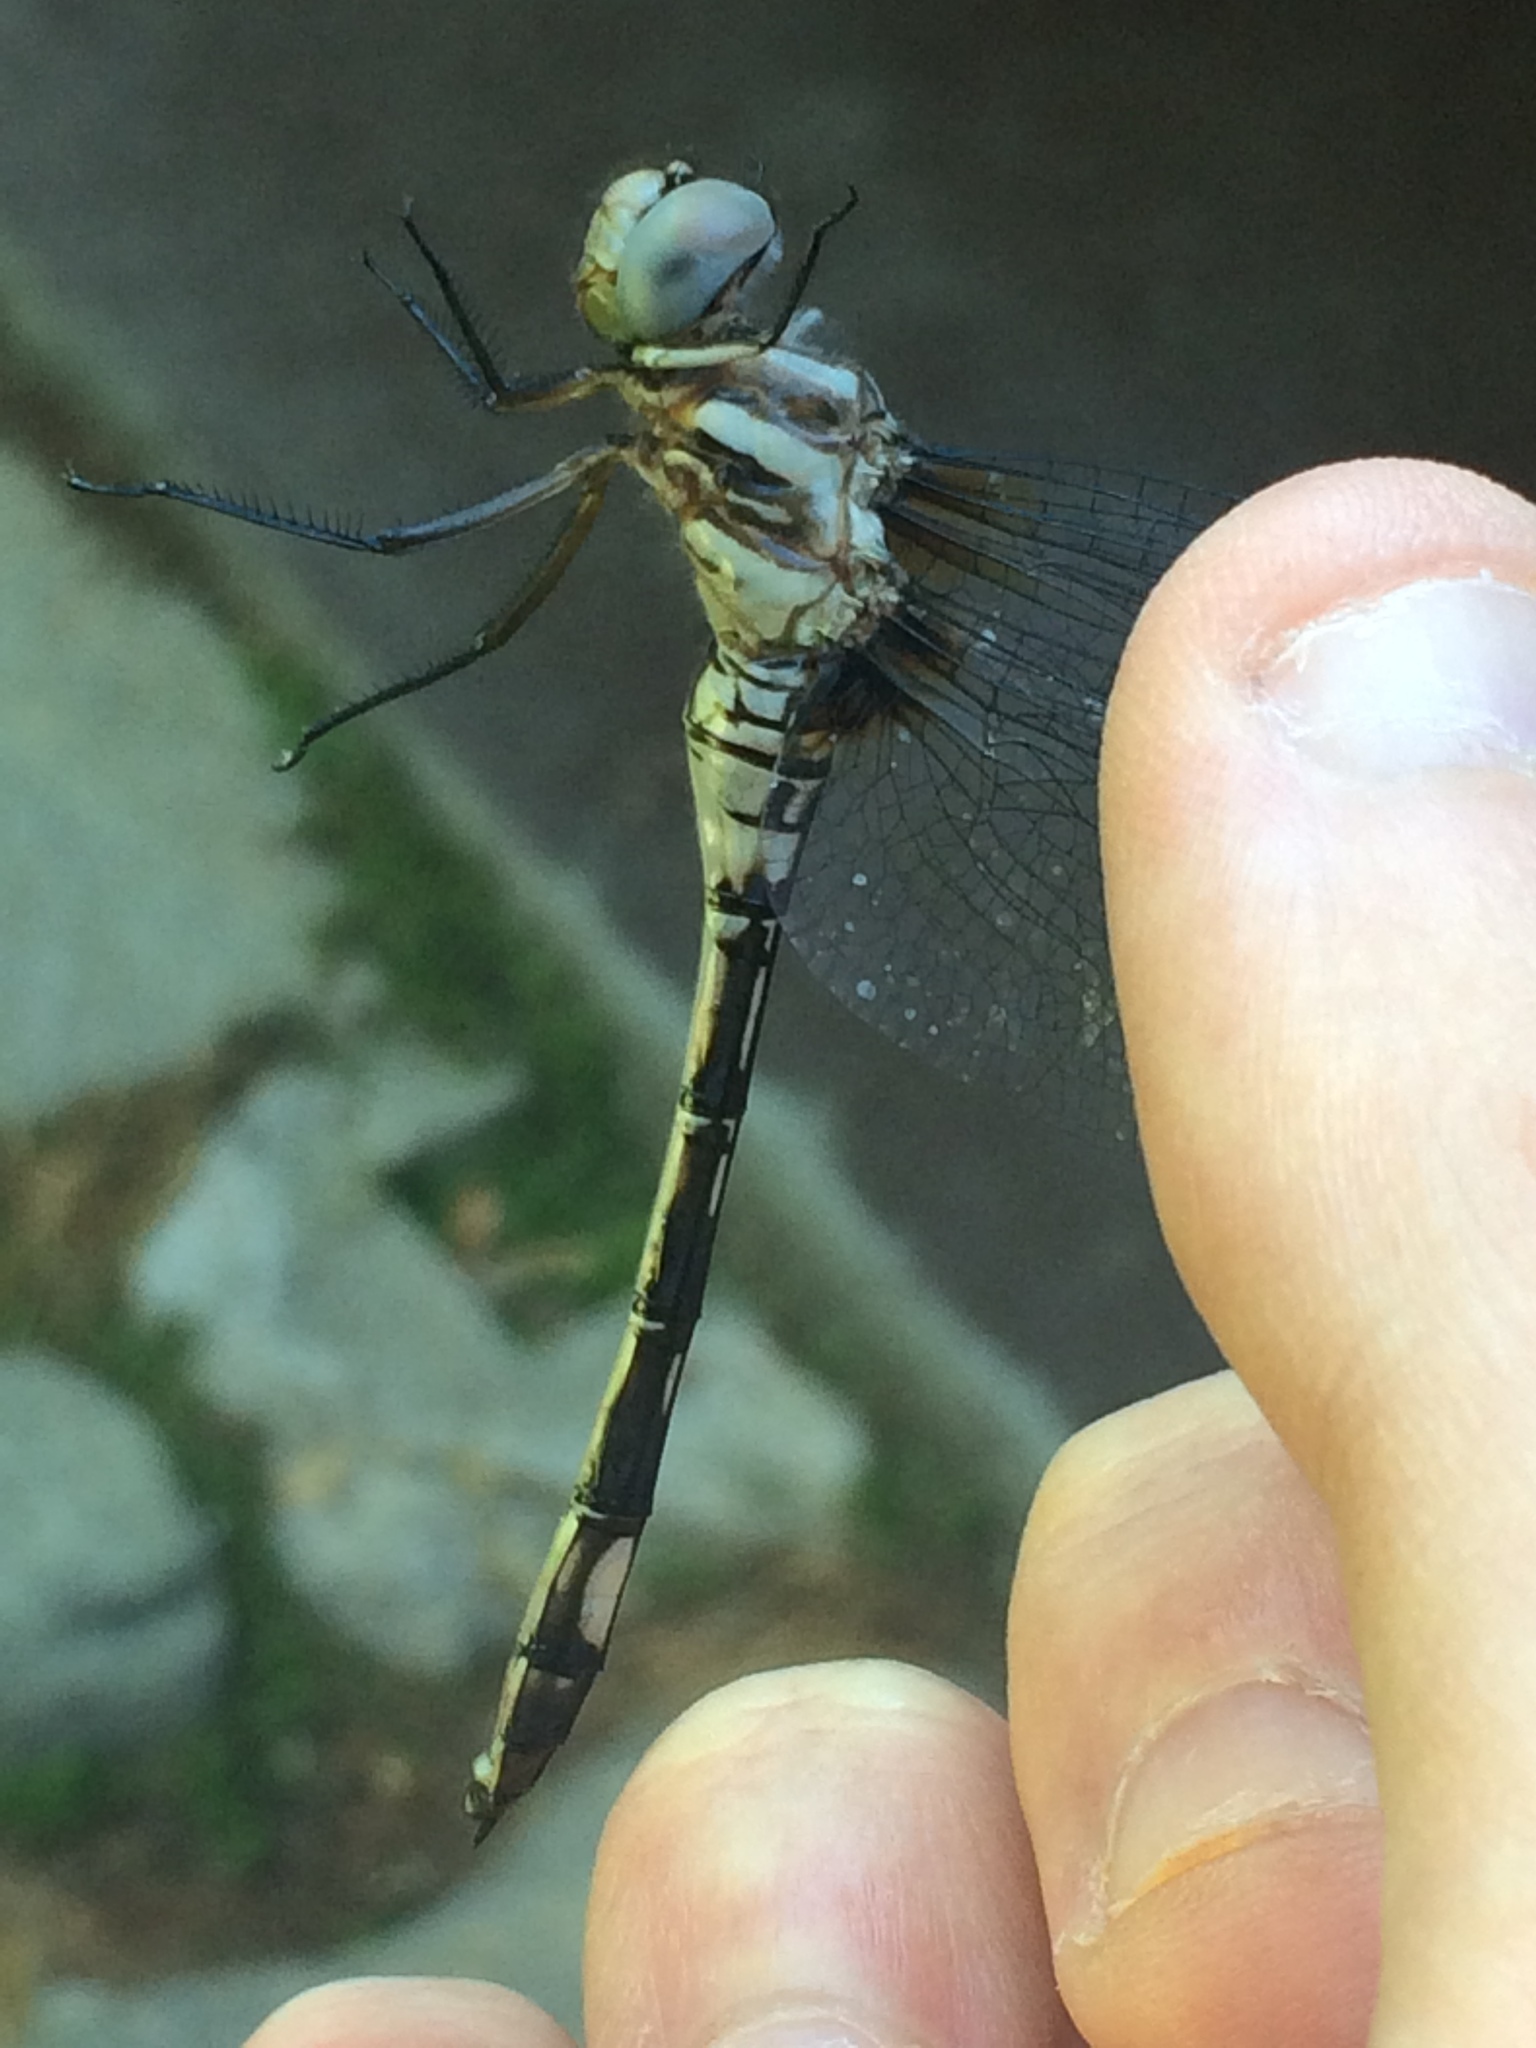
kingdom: Animalia
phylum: Arthropoda
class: Insecta
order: Odonata
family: Libellulidae
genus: Brechmorhoga
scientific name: Brechmorhoga mendax
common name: Pale-faced clubskimmer
